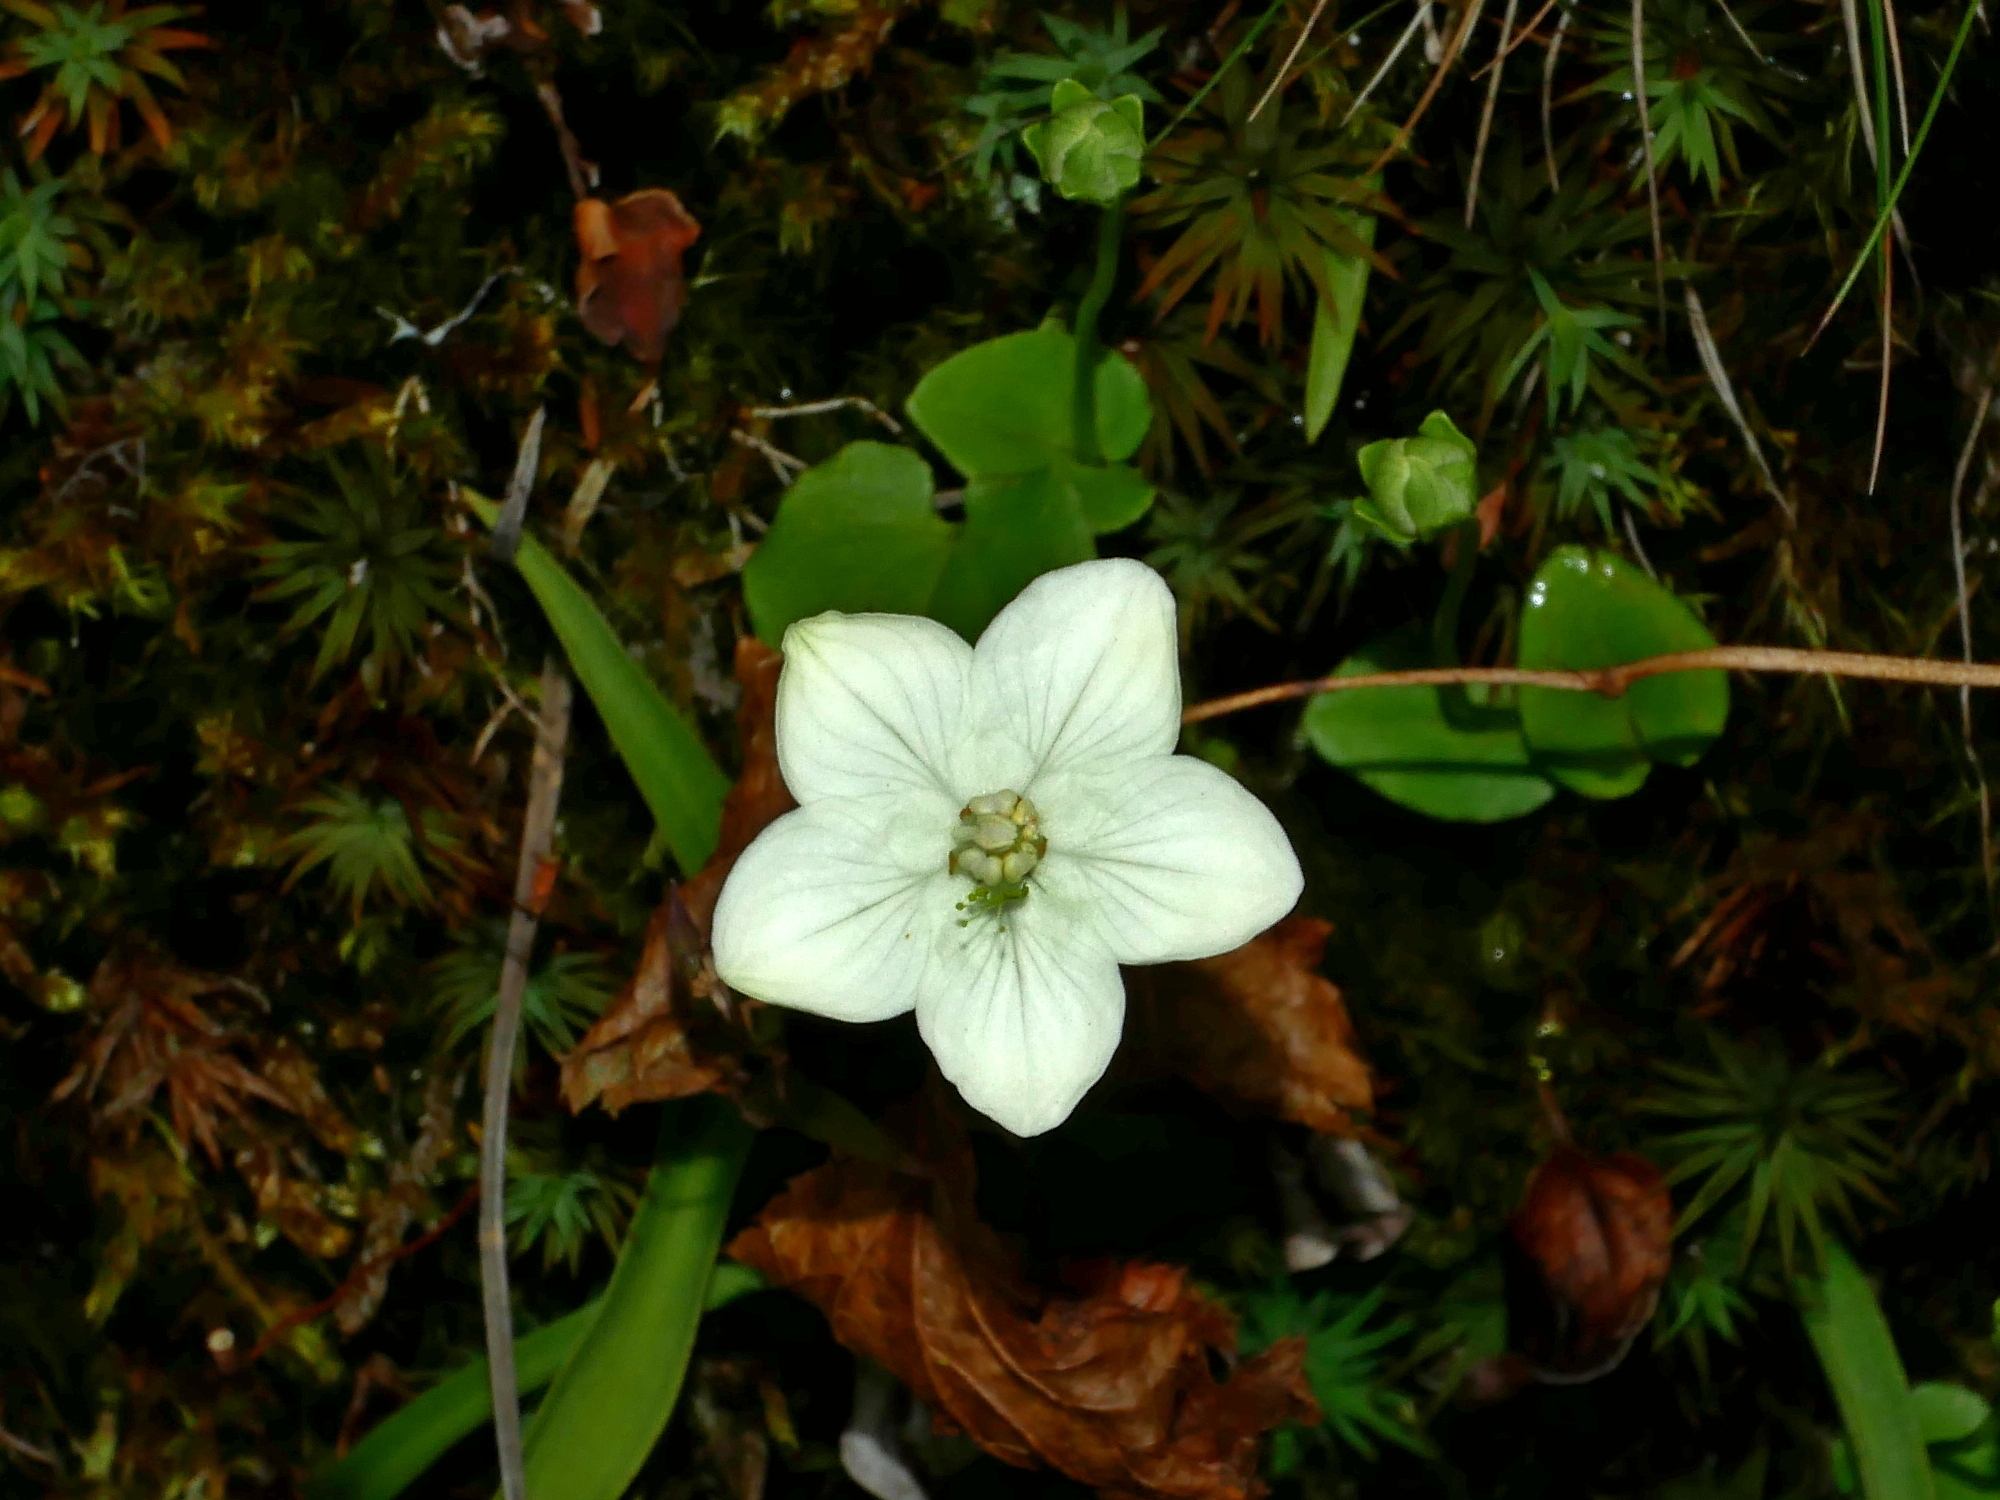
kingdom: Plantae
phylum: Tracheophyta
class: Magnoliopsida
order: Celastrales
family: Parnassiaceae
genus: Parnassia
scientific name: Parnassia palustris
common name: Grass-of-parnassus
